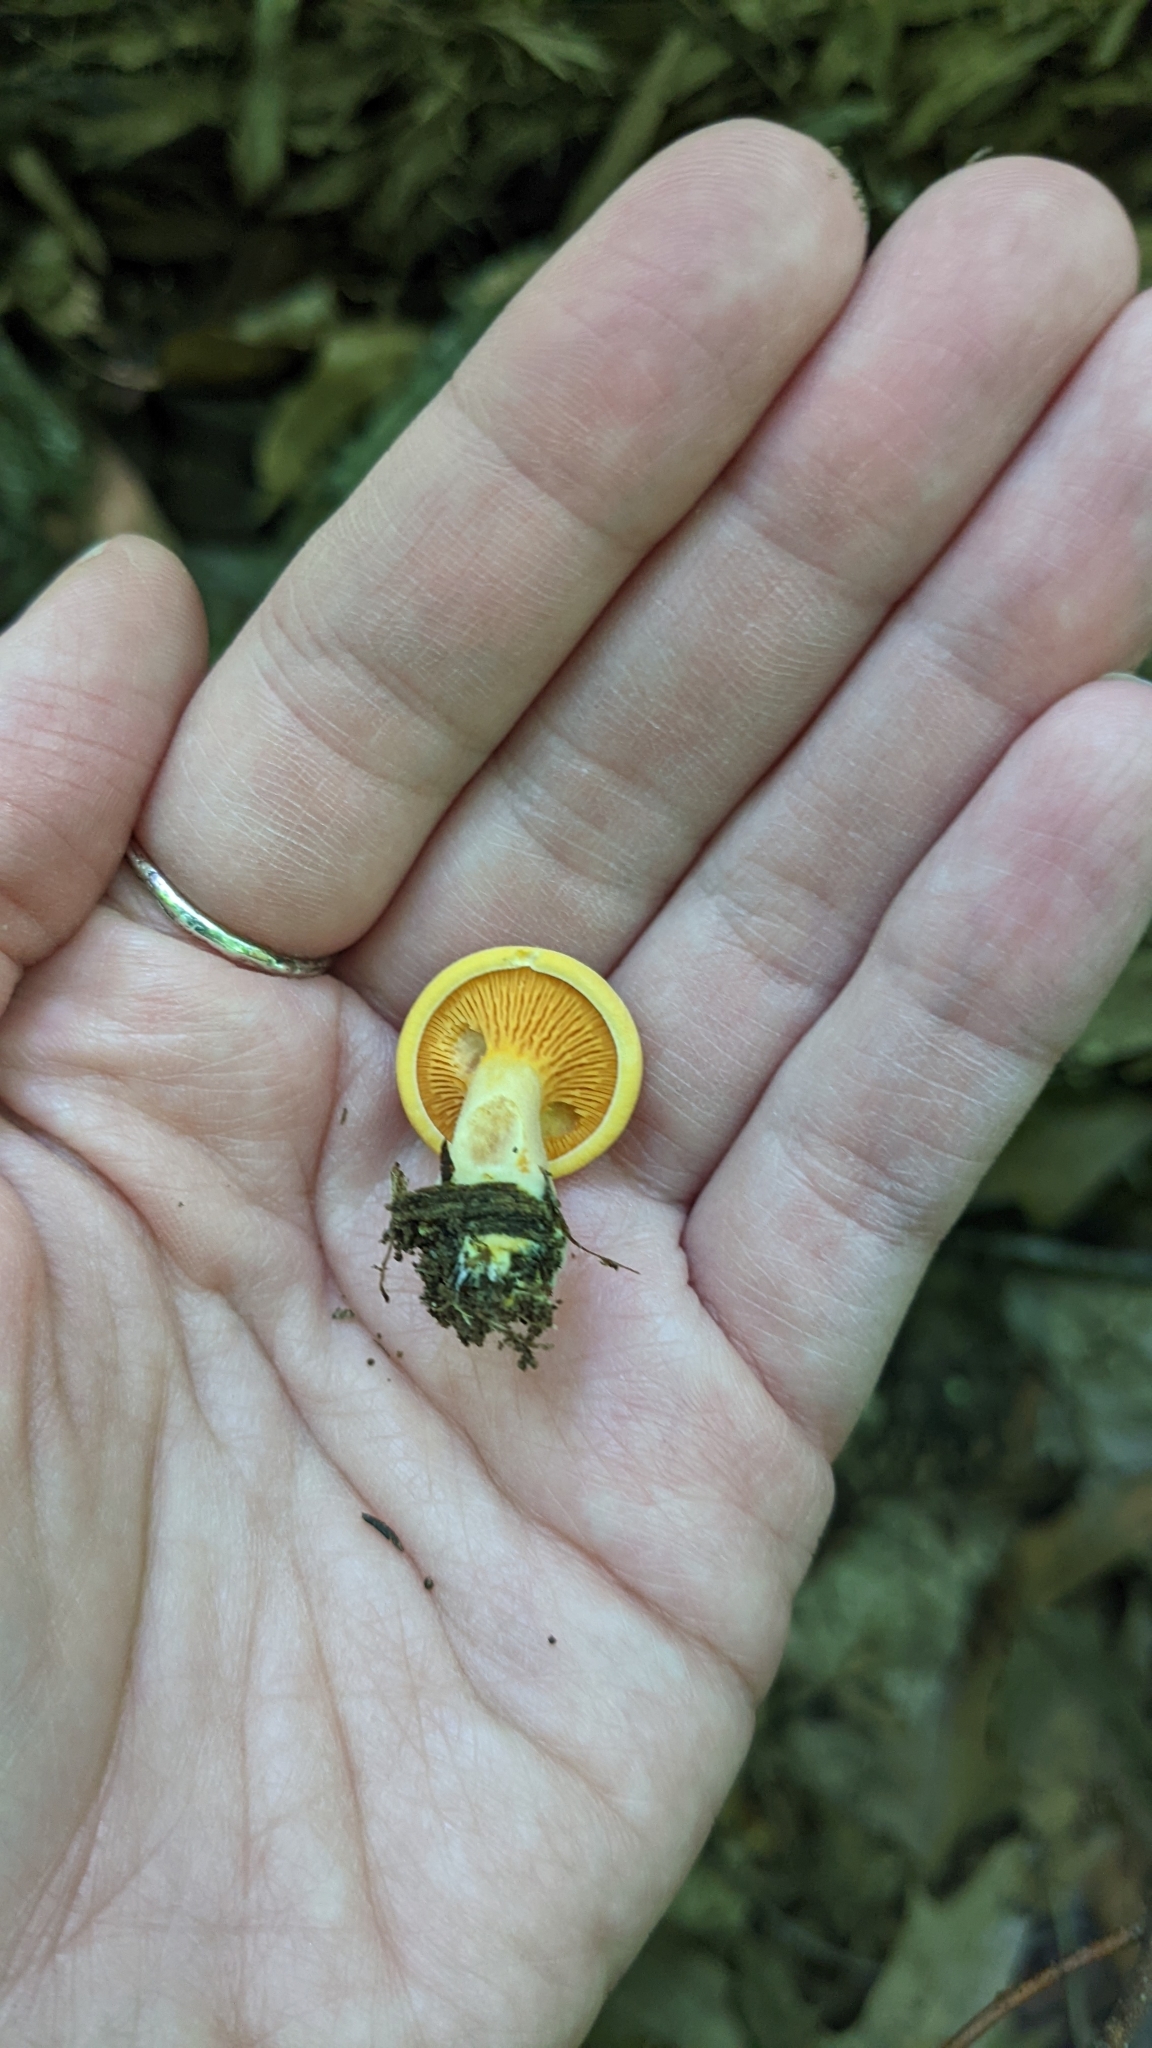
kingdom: Fungi
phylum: Basidiomycota
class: Agaricomycetes
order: Boletales
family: Hygrophoropsidaceae
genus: Hygrophoropsis
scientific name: Hygrophoropsis aurantiaca
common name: False chanterelle
